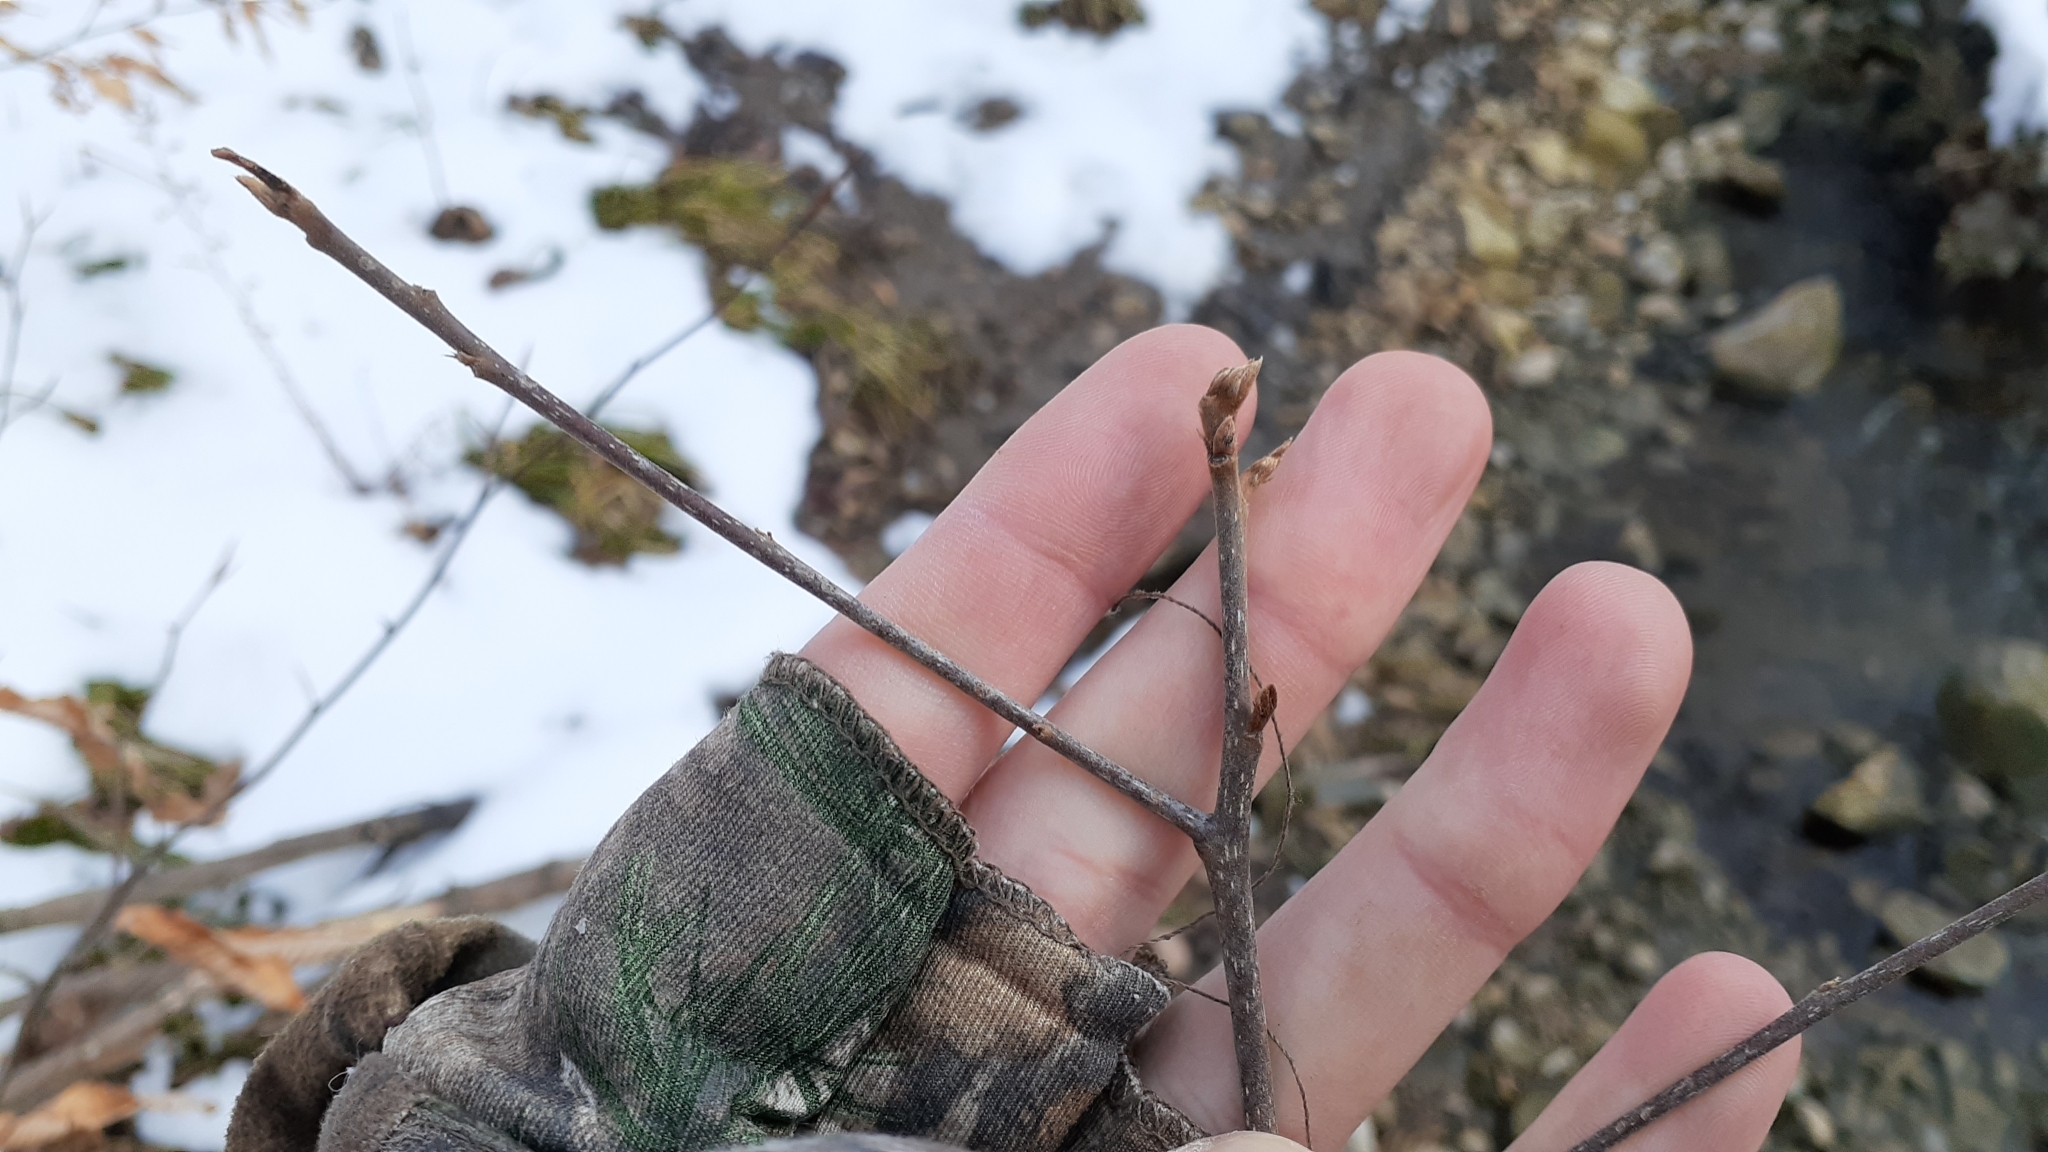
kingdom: Plantae
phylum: Tracheophyta
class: Magnoliopsida
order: Rosales
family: Rhamnaceae
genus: Frangula
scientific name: Frangula alnus
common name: Alder buckthorn
